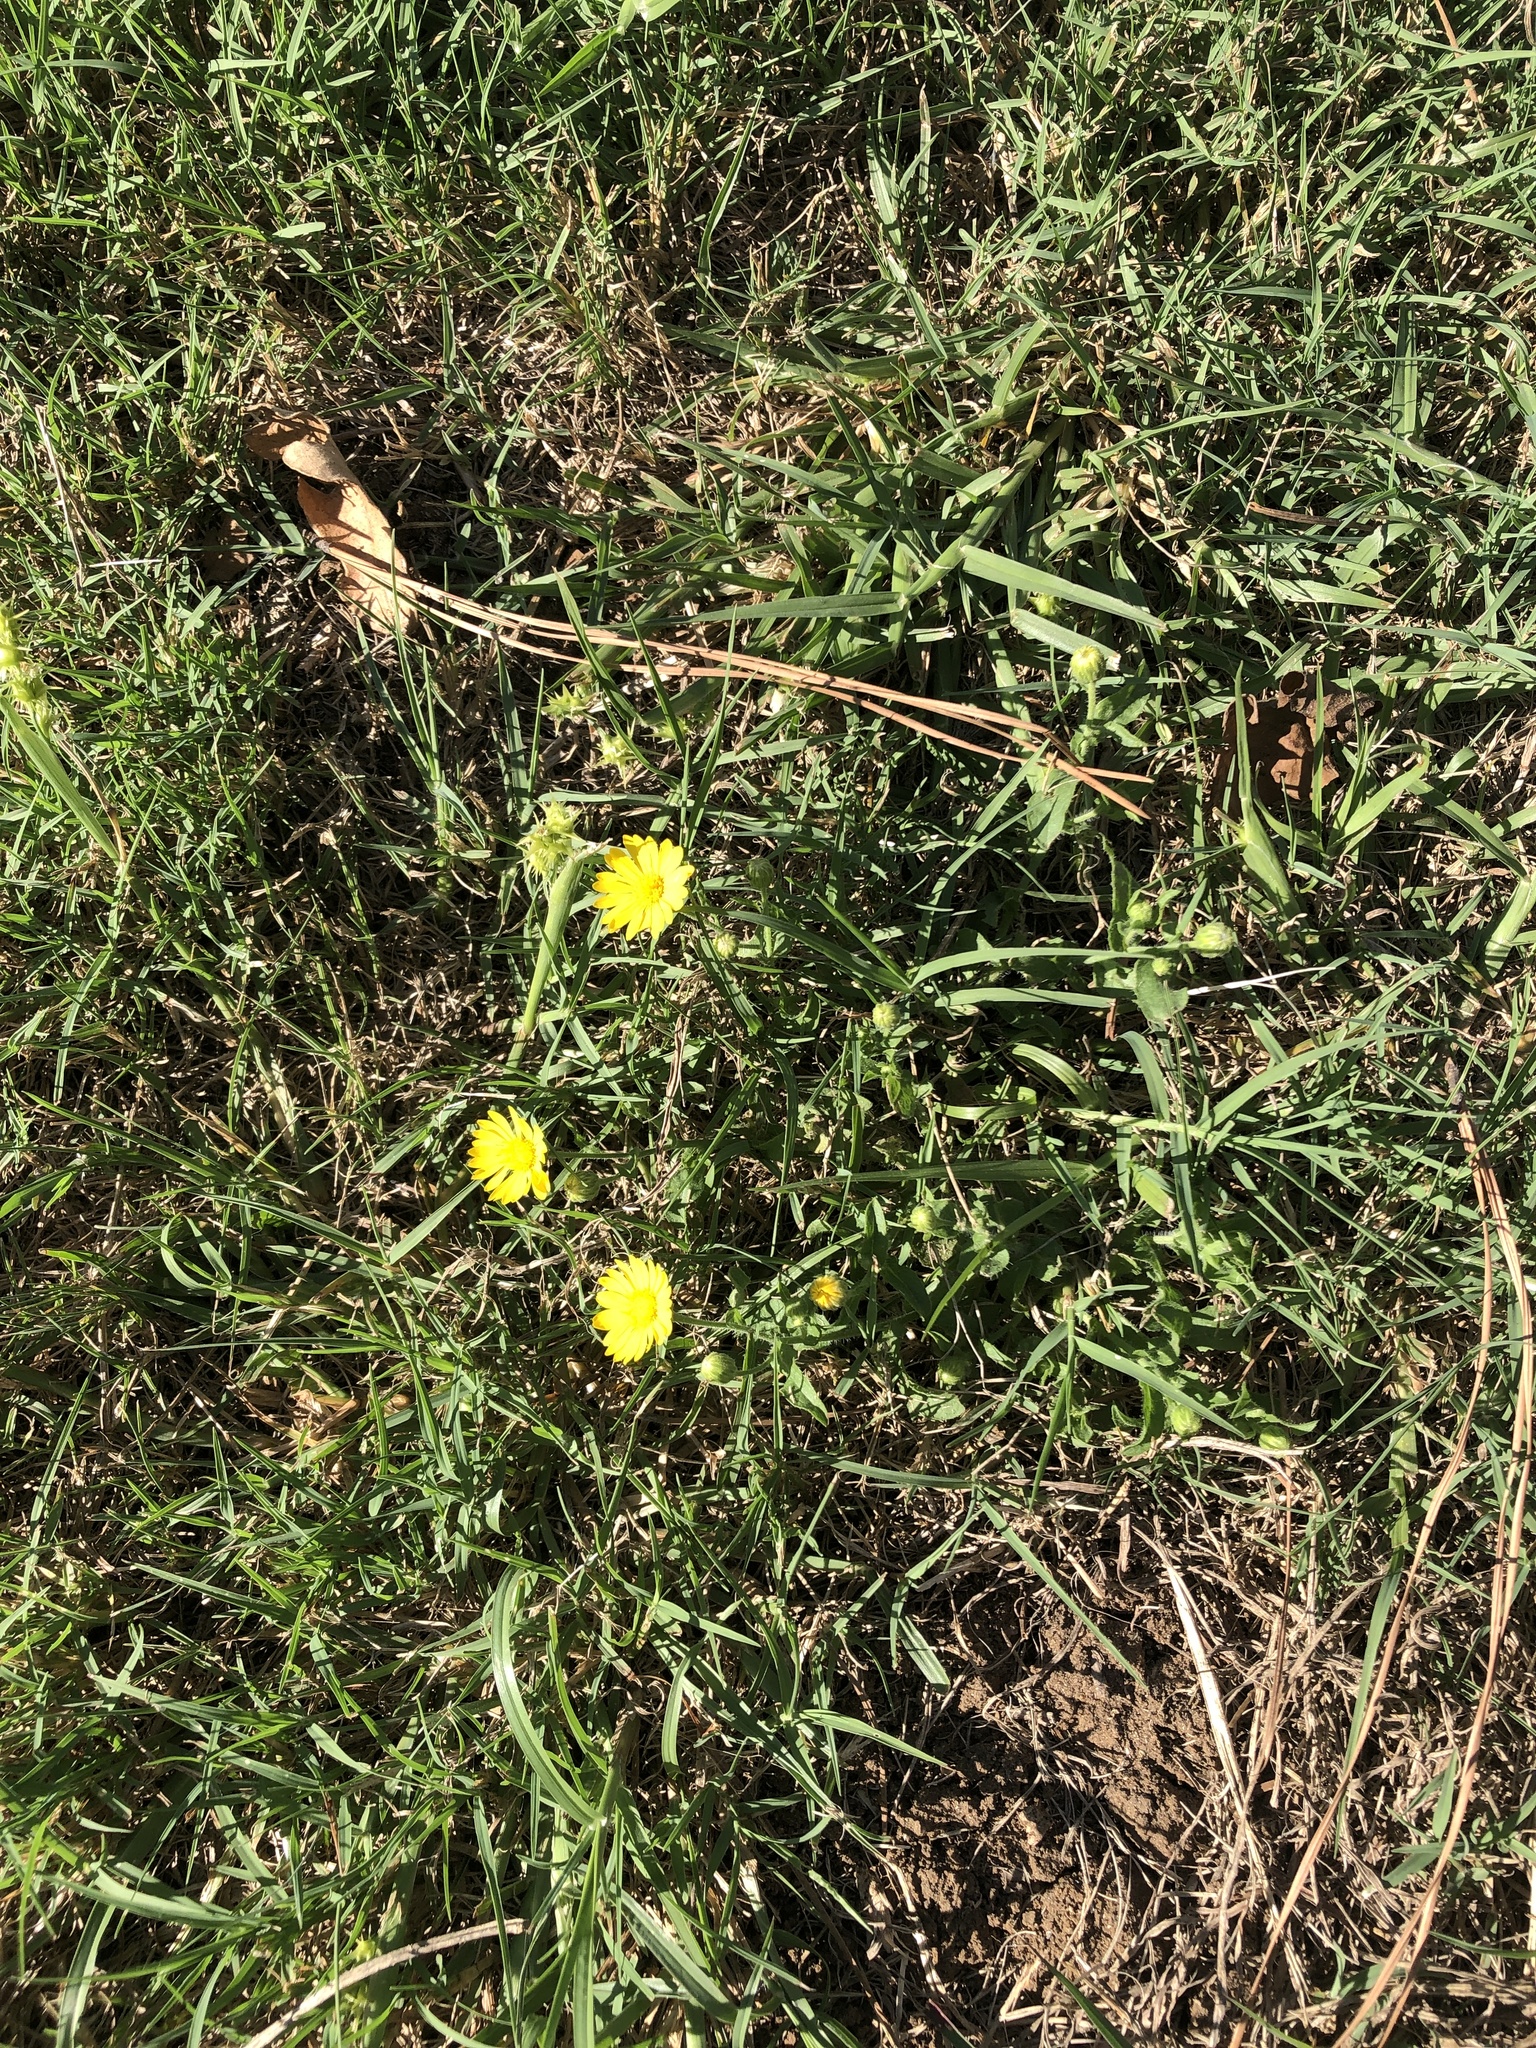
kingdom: Plantae
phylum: Tracheophyta
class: Magnoliopsida
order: Asterales
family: Asteraceae
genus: Heterotheca
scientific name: Heterotheca subaxillaris
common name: Camphorweed
